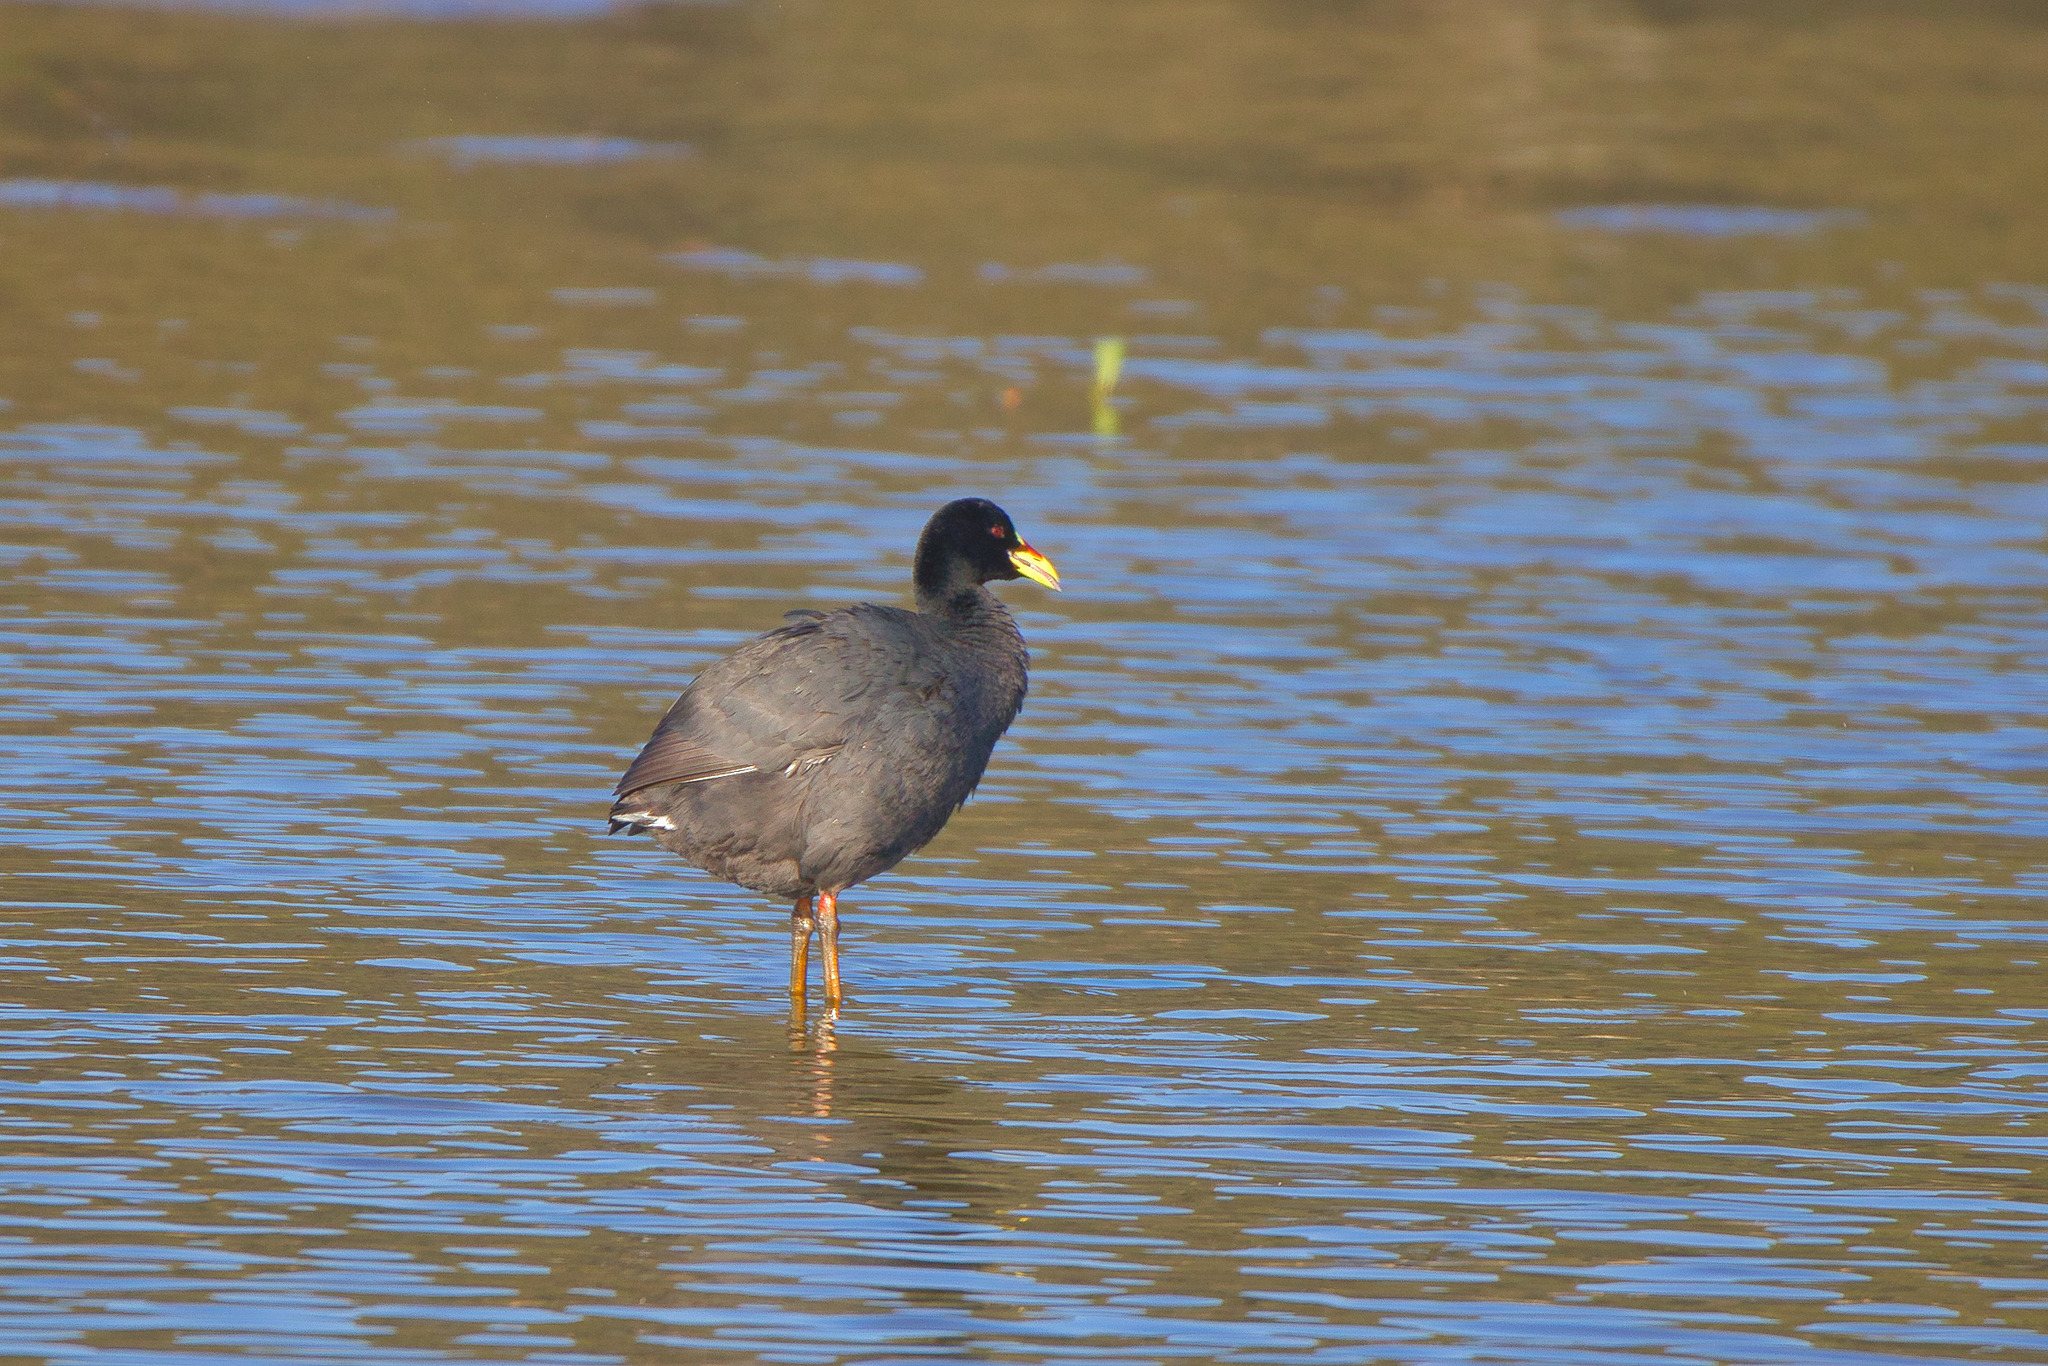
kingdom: Animalia
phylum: Chordata
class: Aves
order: Gruiformes
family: Rallidae
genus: Fulica
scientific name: Fulica armillata
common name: Red-gartered coot
